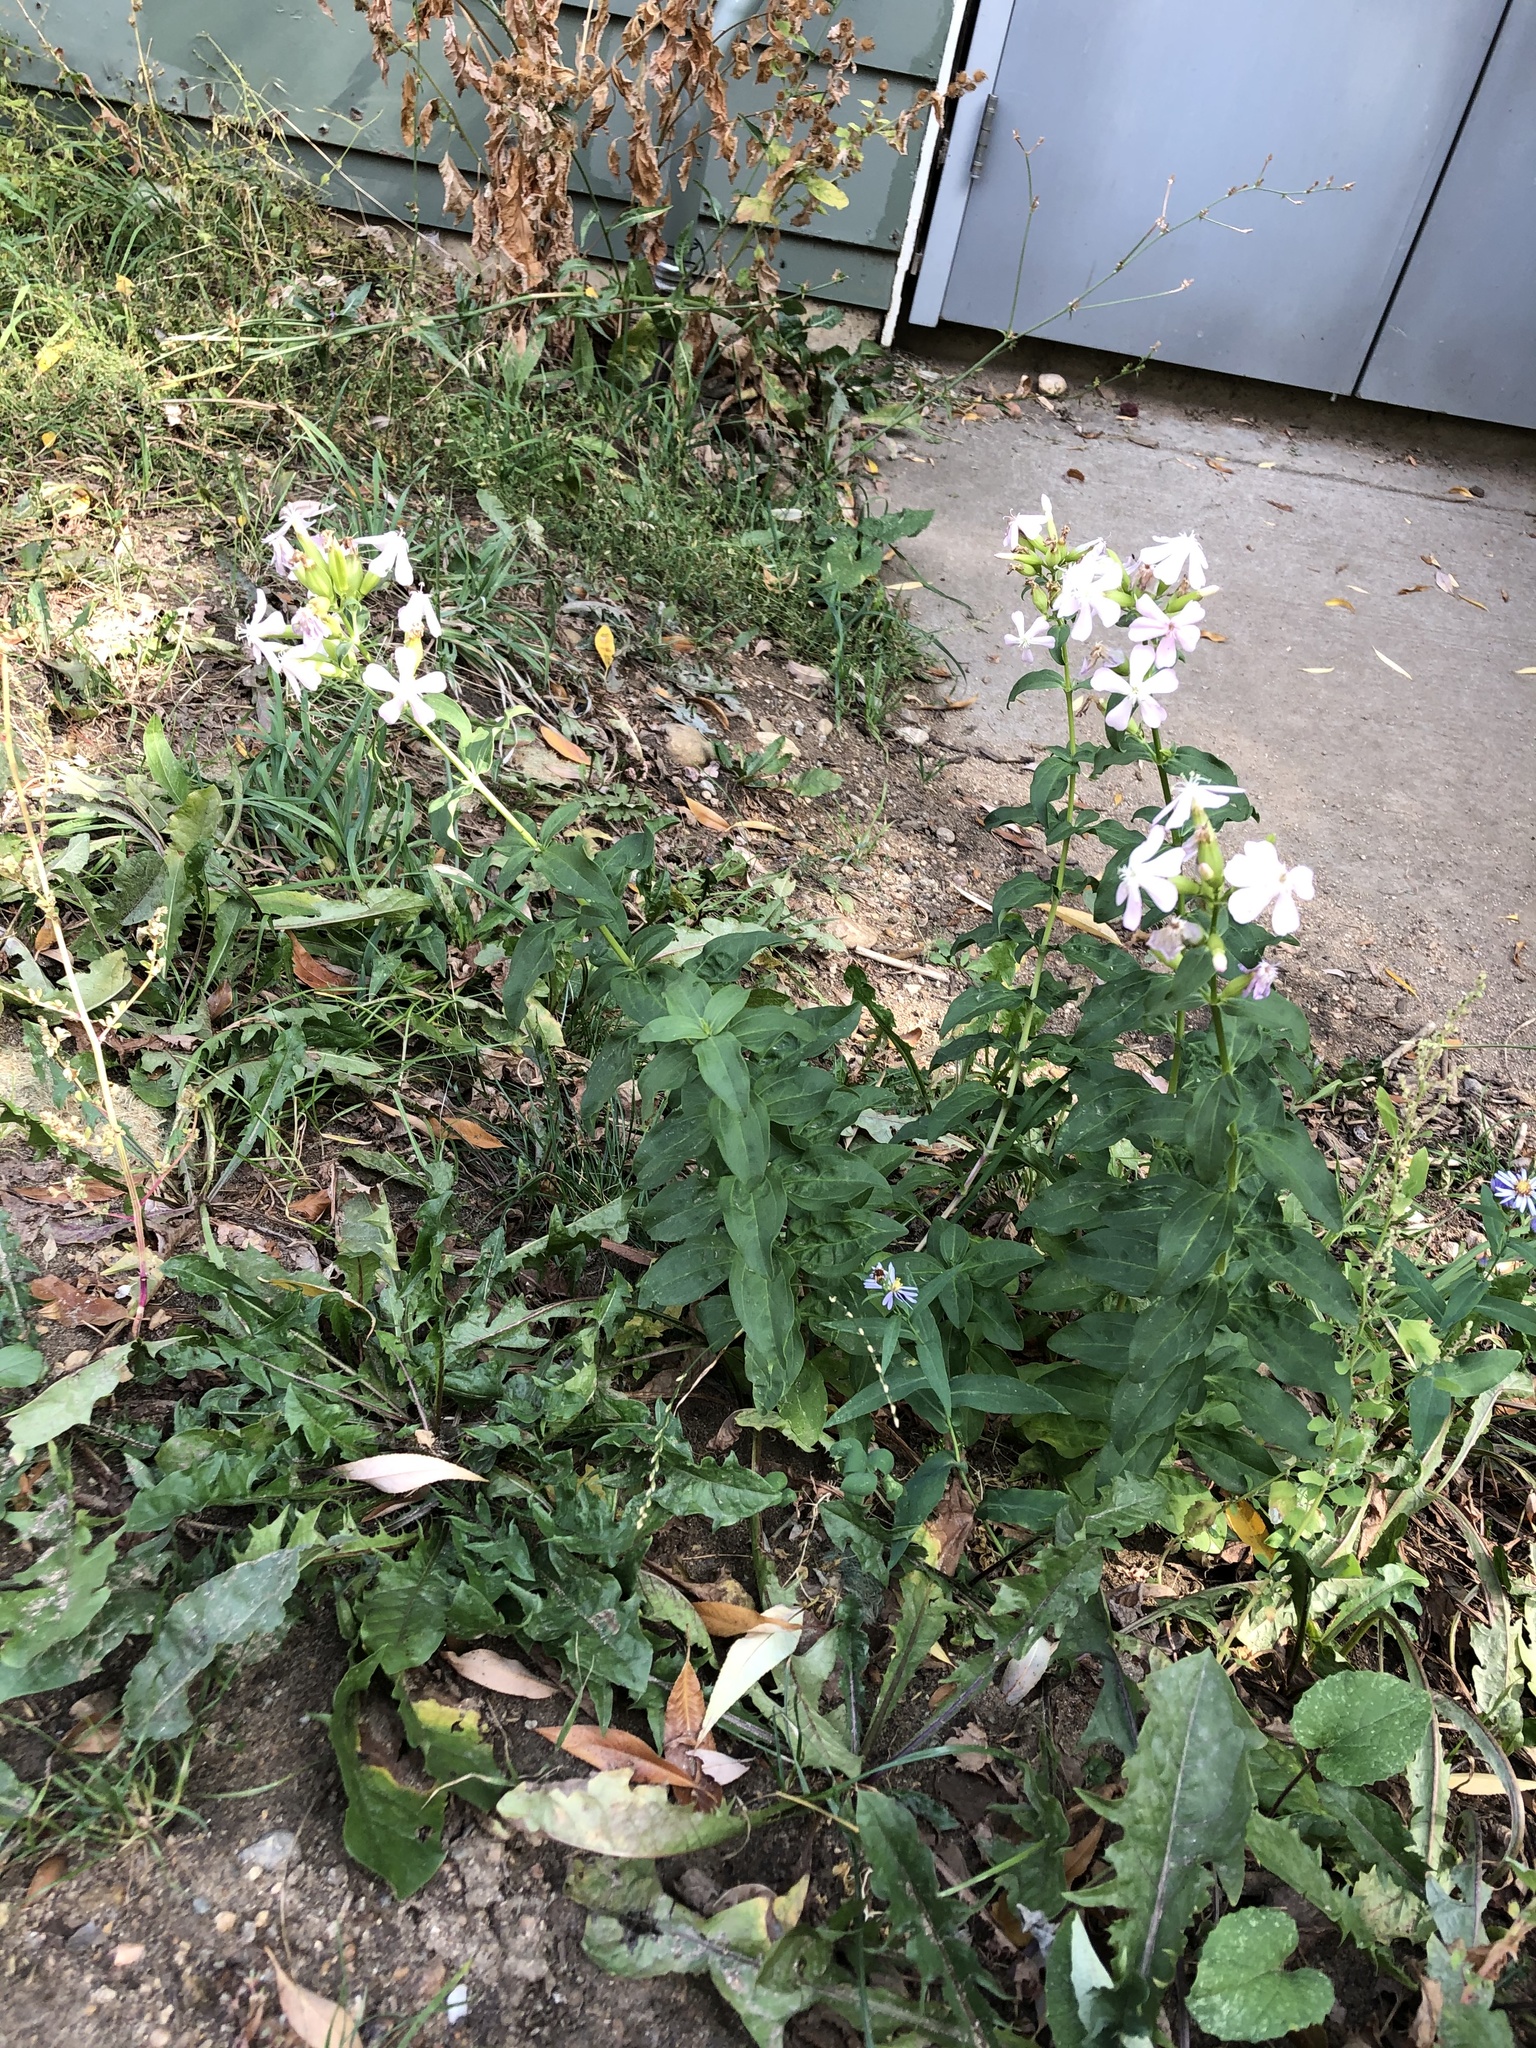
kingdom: Plantae
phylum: Tracheophyta
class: Magnoliopsida
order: Caryophyllales
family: Caryophyllaceae
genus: Saponaria
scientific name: Saponaria officinalis
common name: Soapwort
